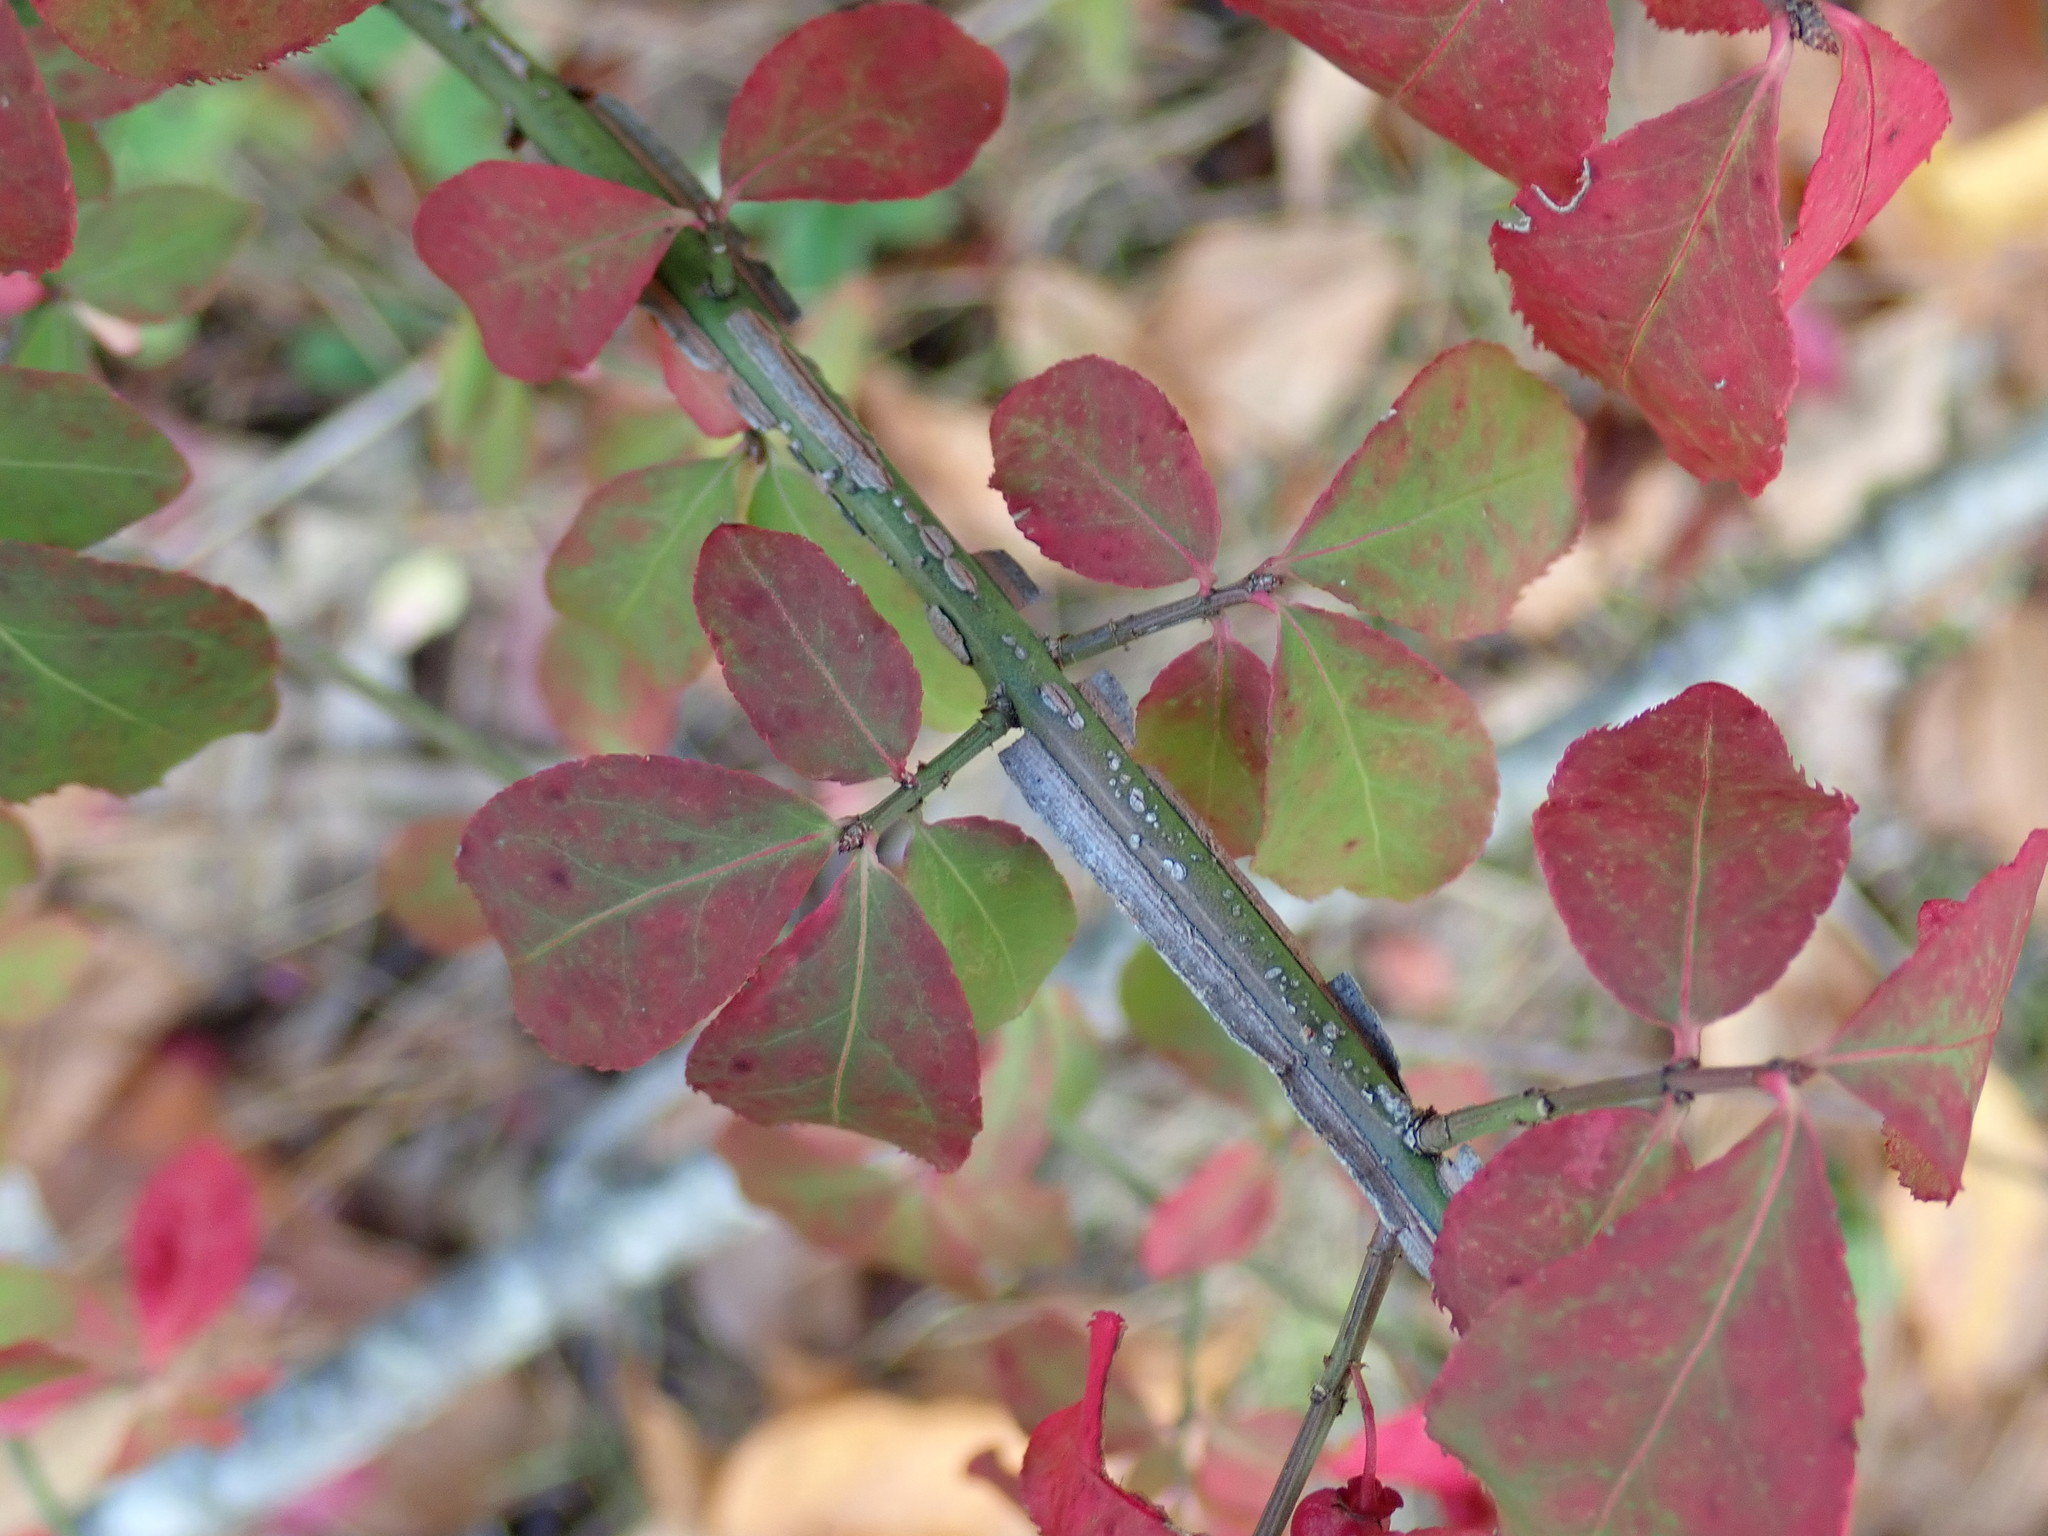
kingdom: Plantae
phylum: Tracheophyta
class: Magnoliopsida
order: Celastrales
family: Celastraceae
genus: Euonymus
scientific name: Euonymus alatus
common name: Winged euonymus
